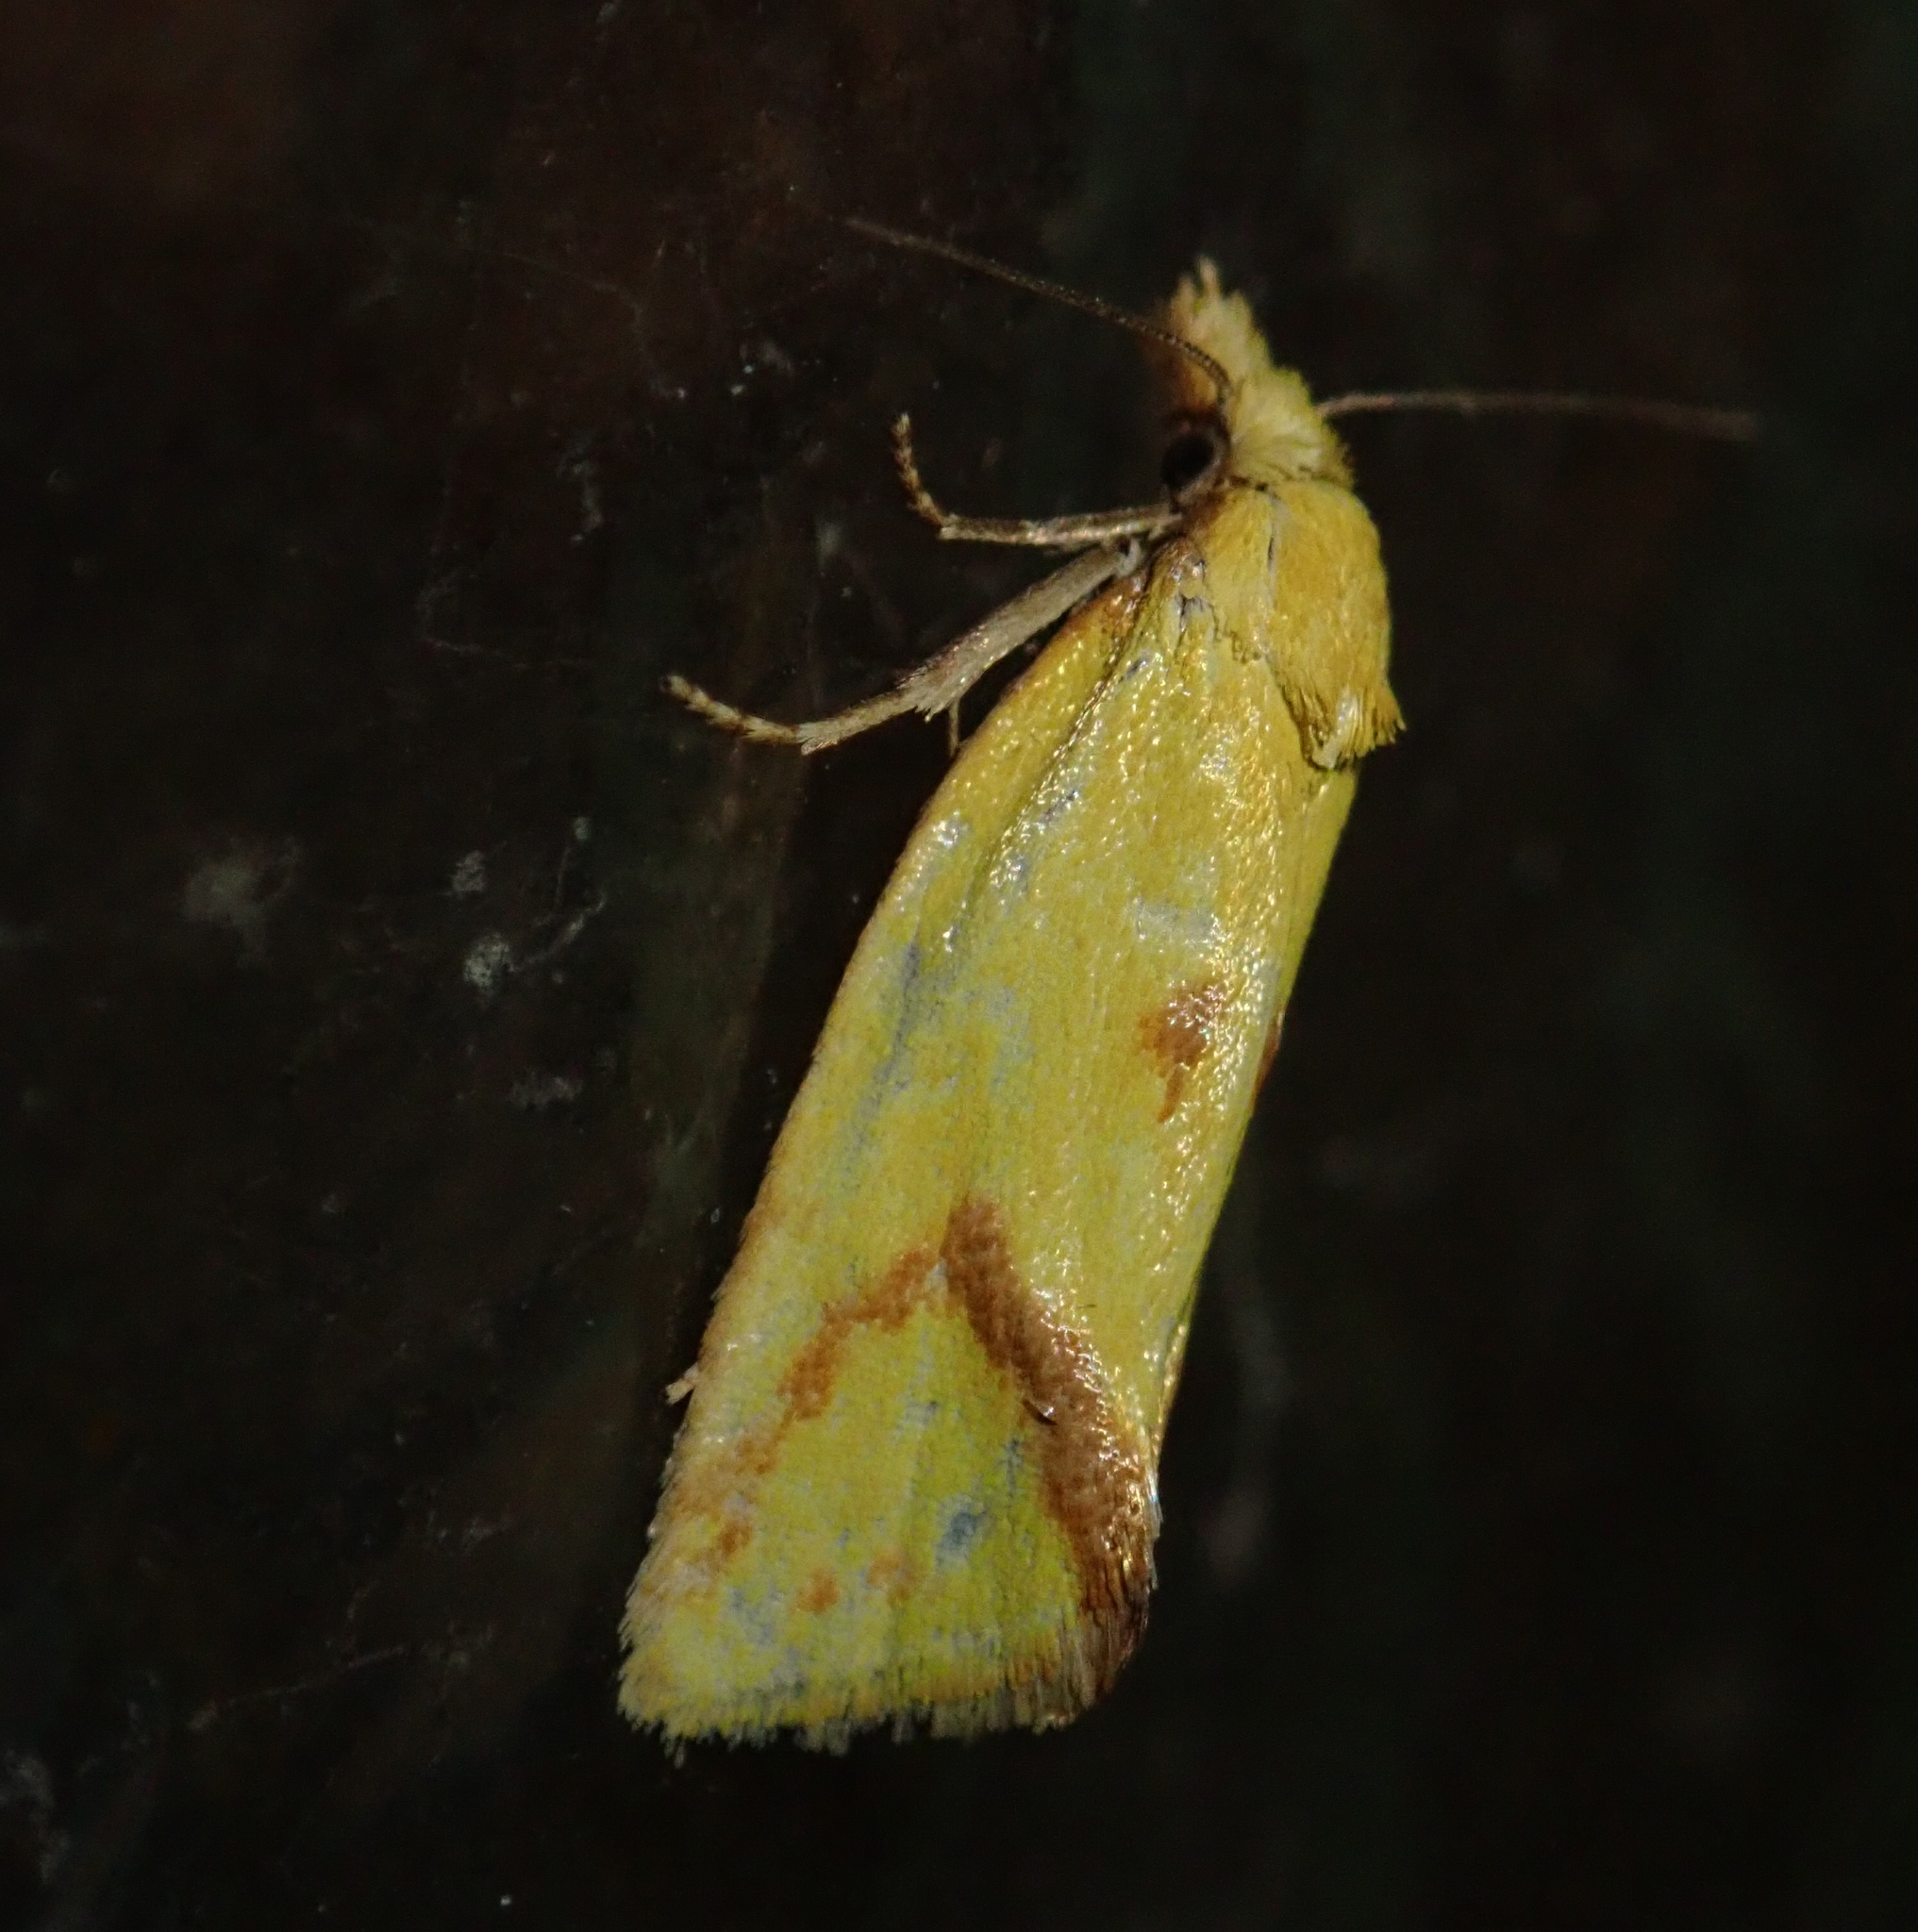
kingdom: Animalia
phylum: Arthropoda
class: Insecta
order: Lepidoptera
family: Tortricidae
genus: Agapeta
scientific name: Agapeta hamana
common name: Common yellow conch
